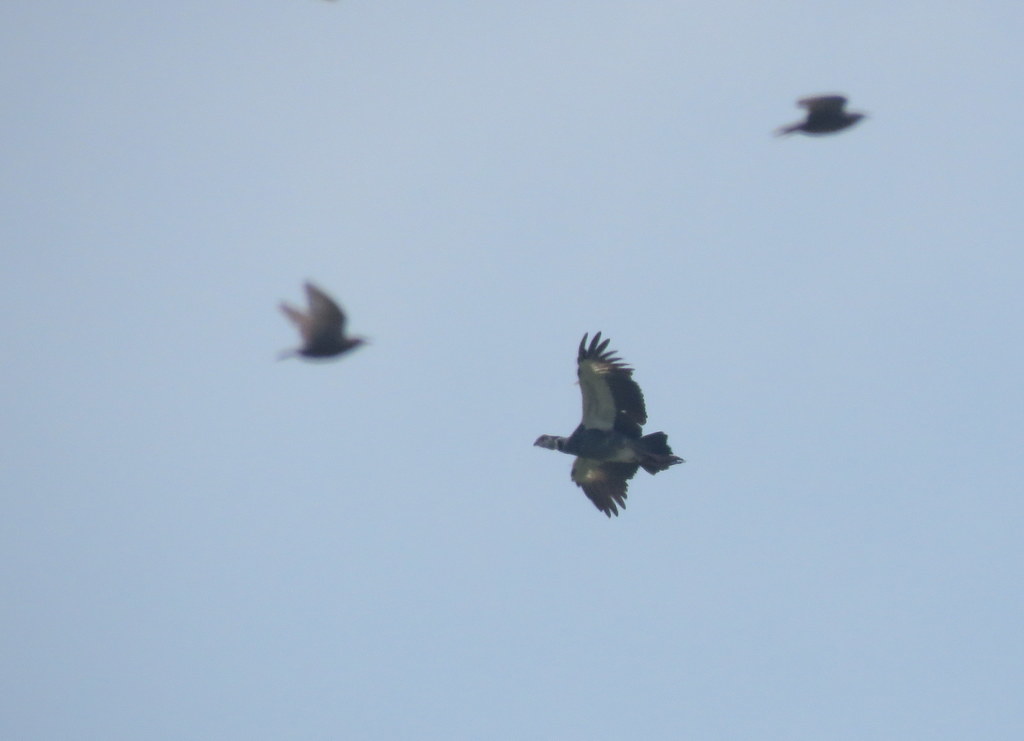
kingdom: Animalia
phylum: Chordata
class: Aves
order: Anseriformes
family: Anhimidae
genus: Chauna
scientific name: Chauna torquata
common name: Southern screamer
